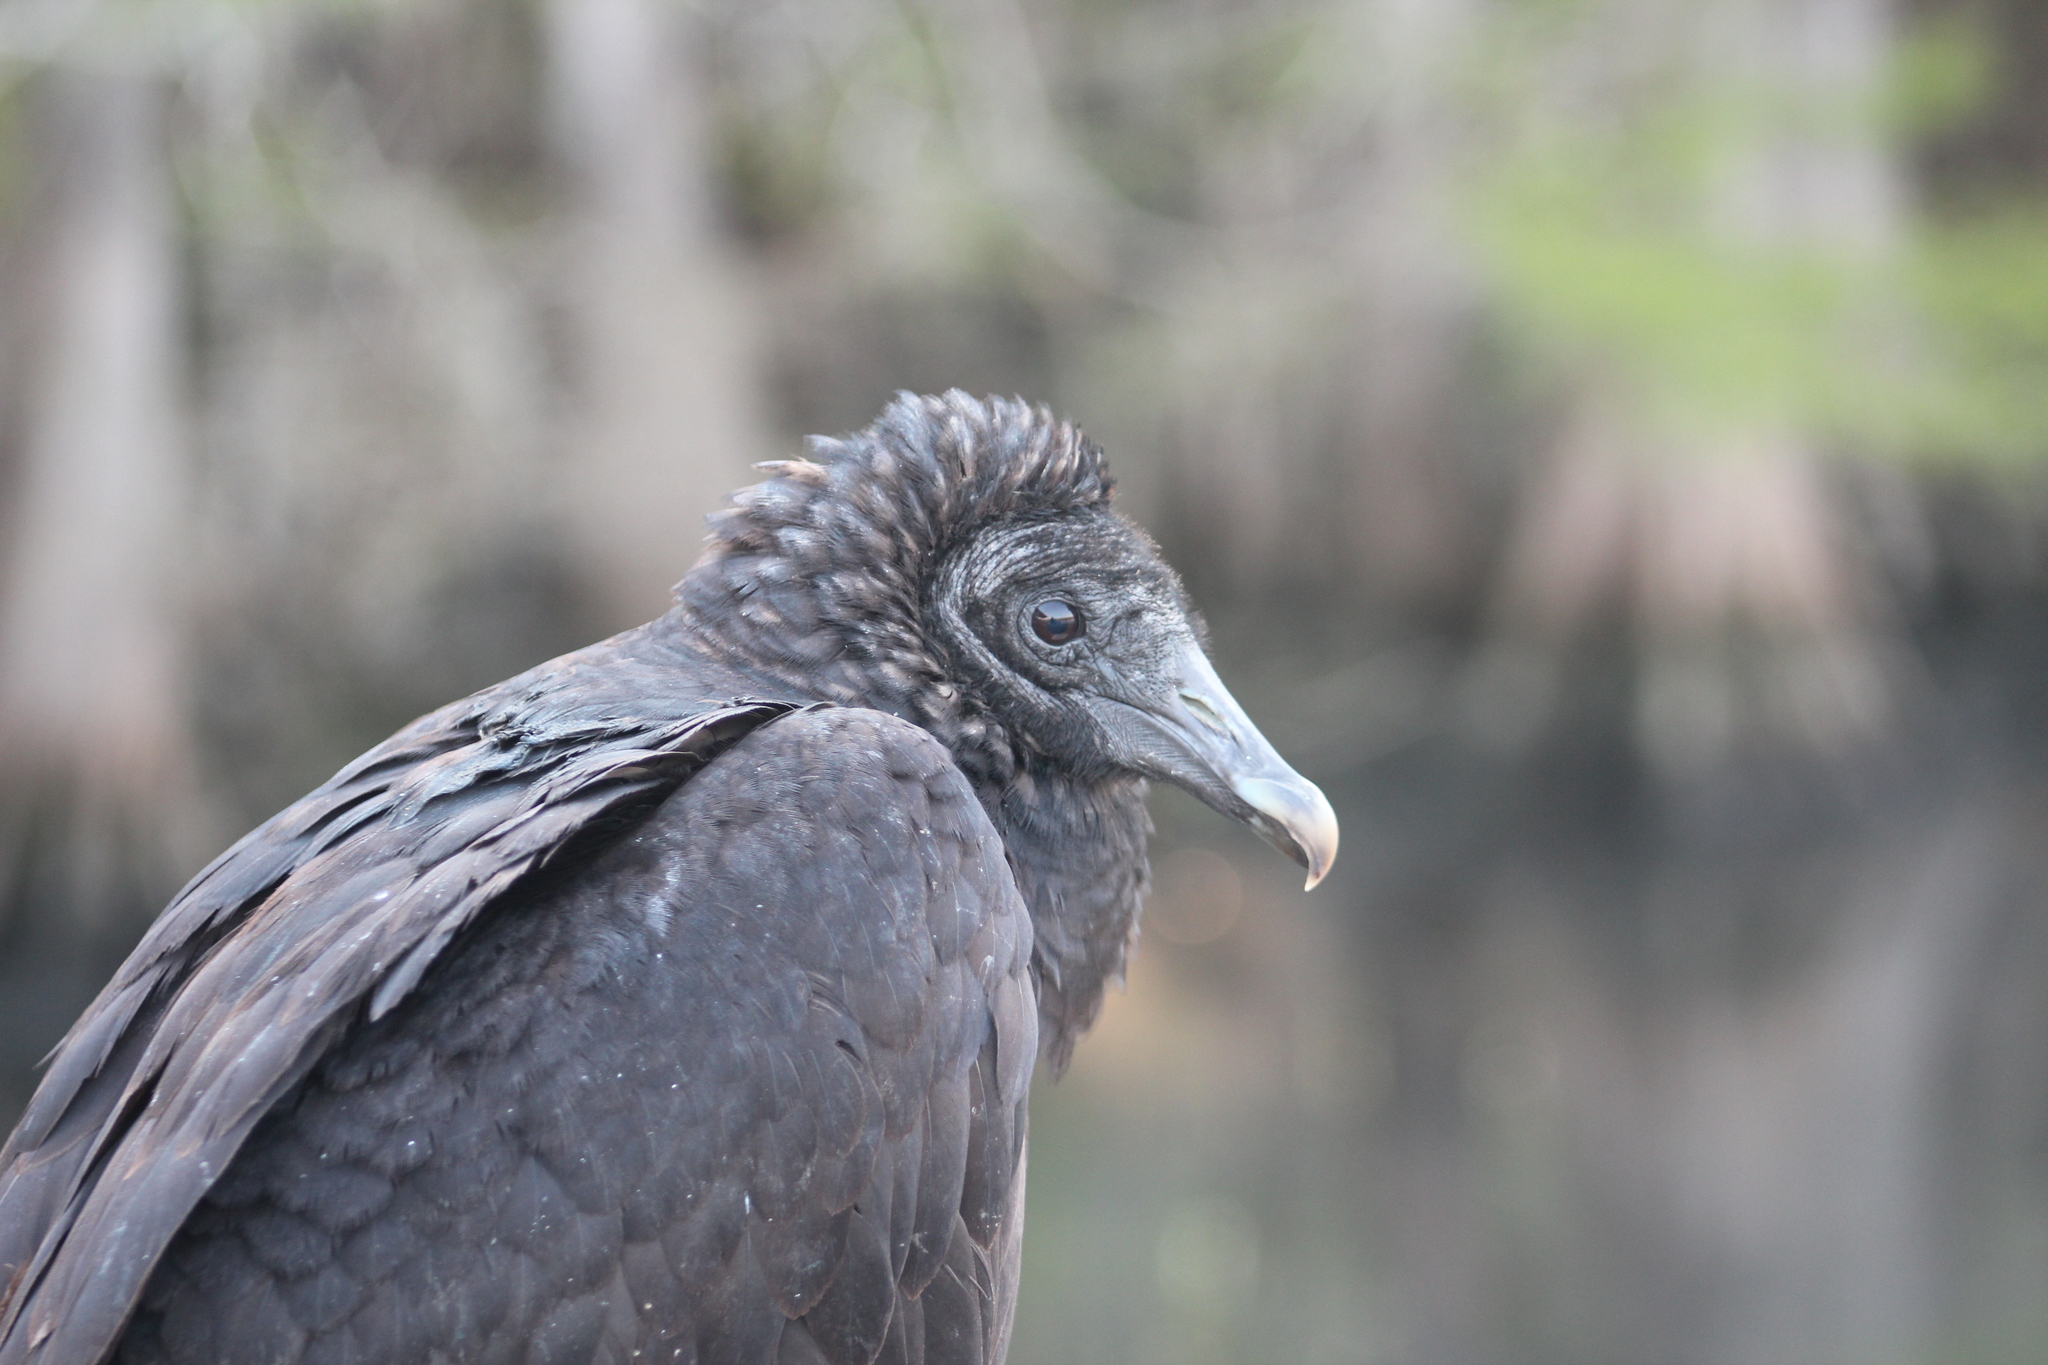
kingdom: Animalia
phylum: Chordata
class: Aves
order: Accipitriformes
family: Cathartidae
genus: Coragyps
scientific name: Coragyps atratus
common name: Black vulture
